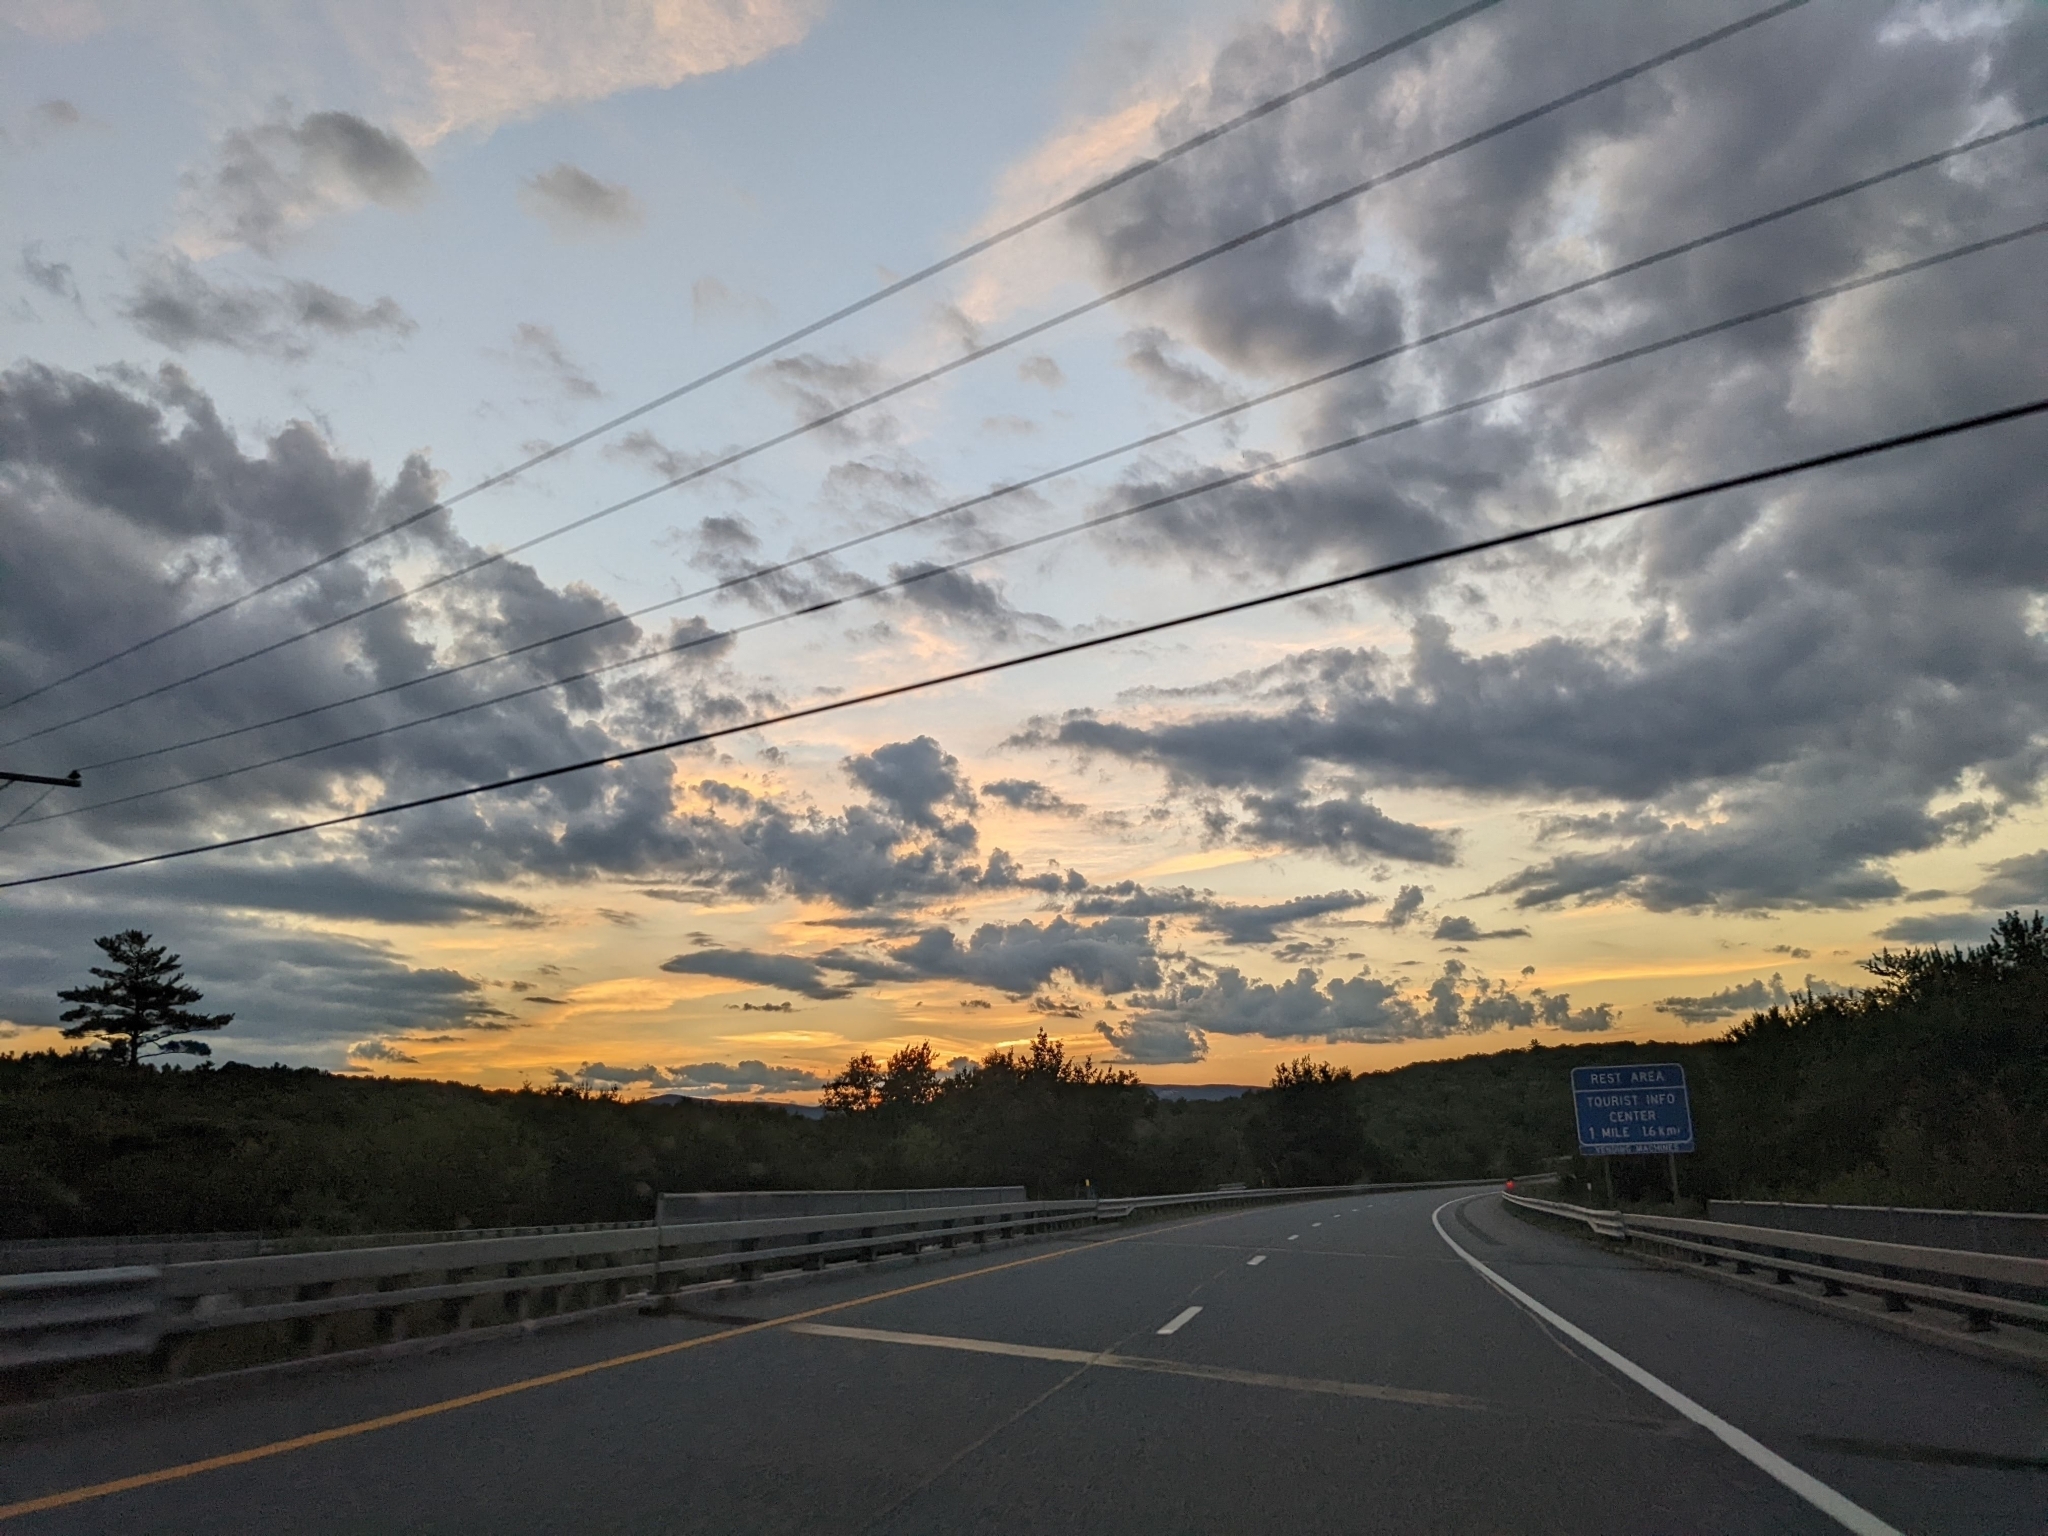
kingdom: Plantae
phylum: Tracheophyta
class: Pinopsida
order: Pinales
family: Pinaceae
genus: Pinus
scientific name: Pinus strobus
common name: Weymouth pine
